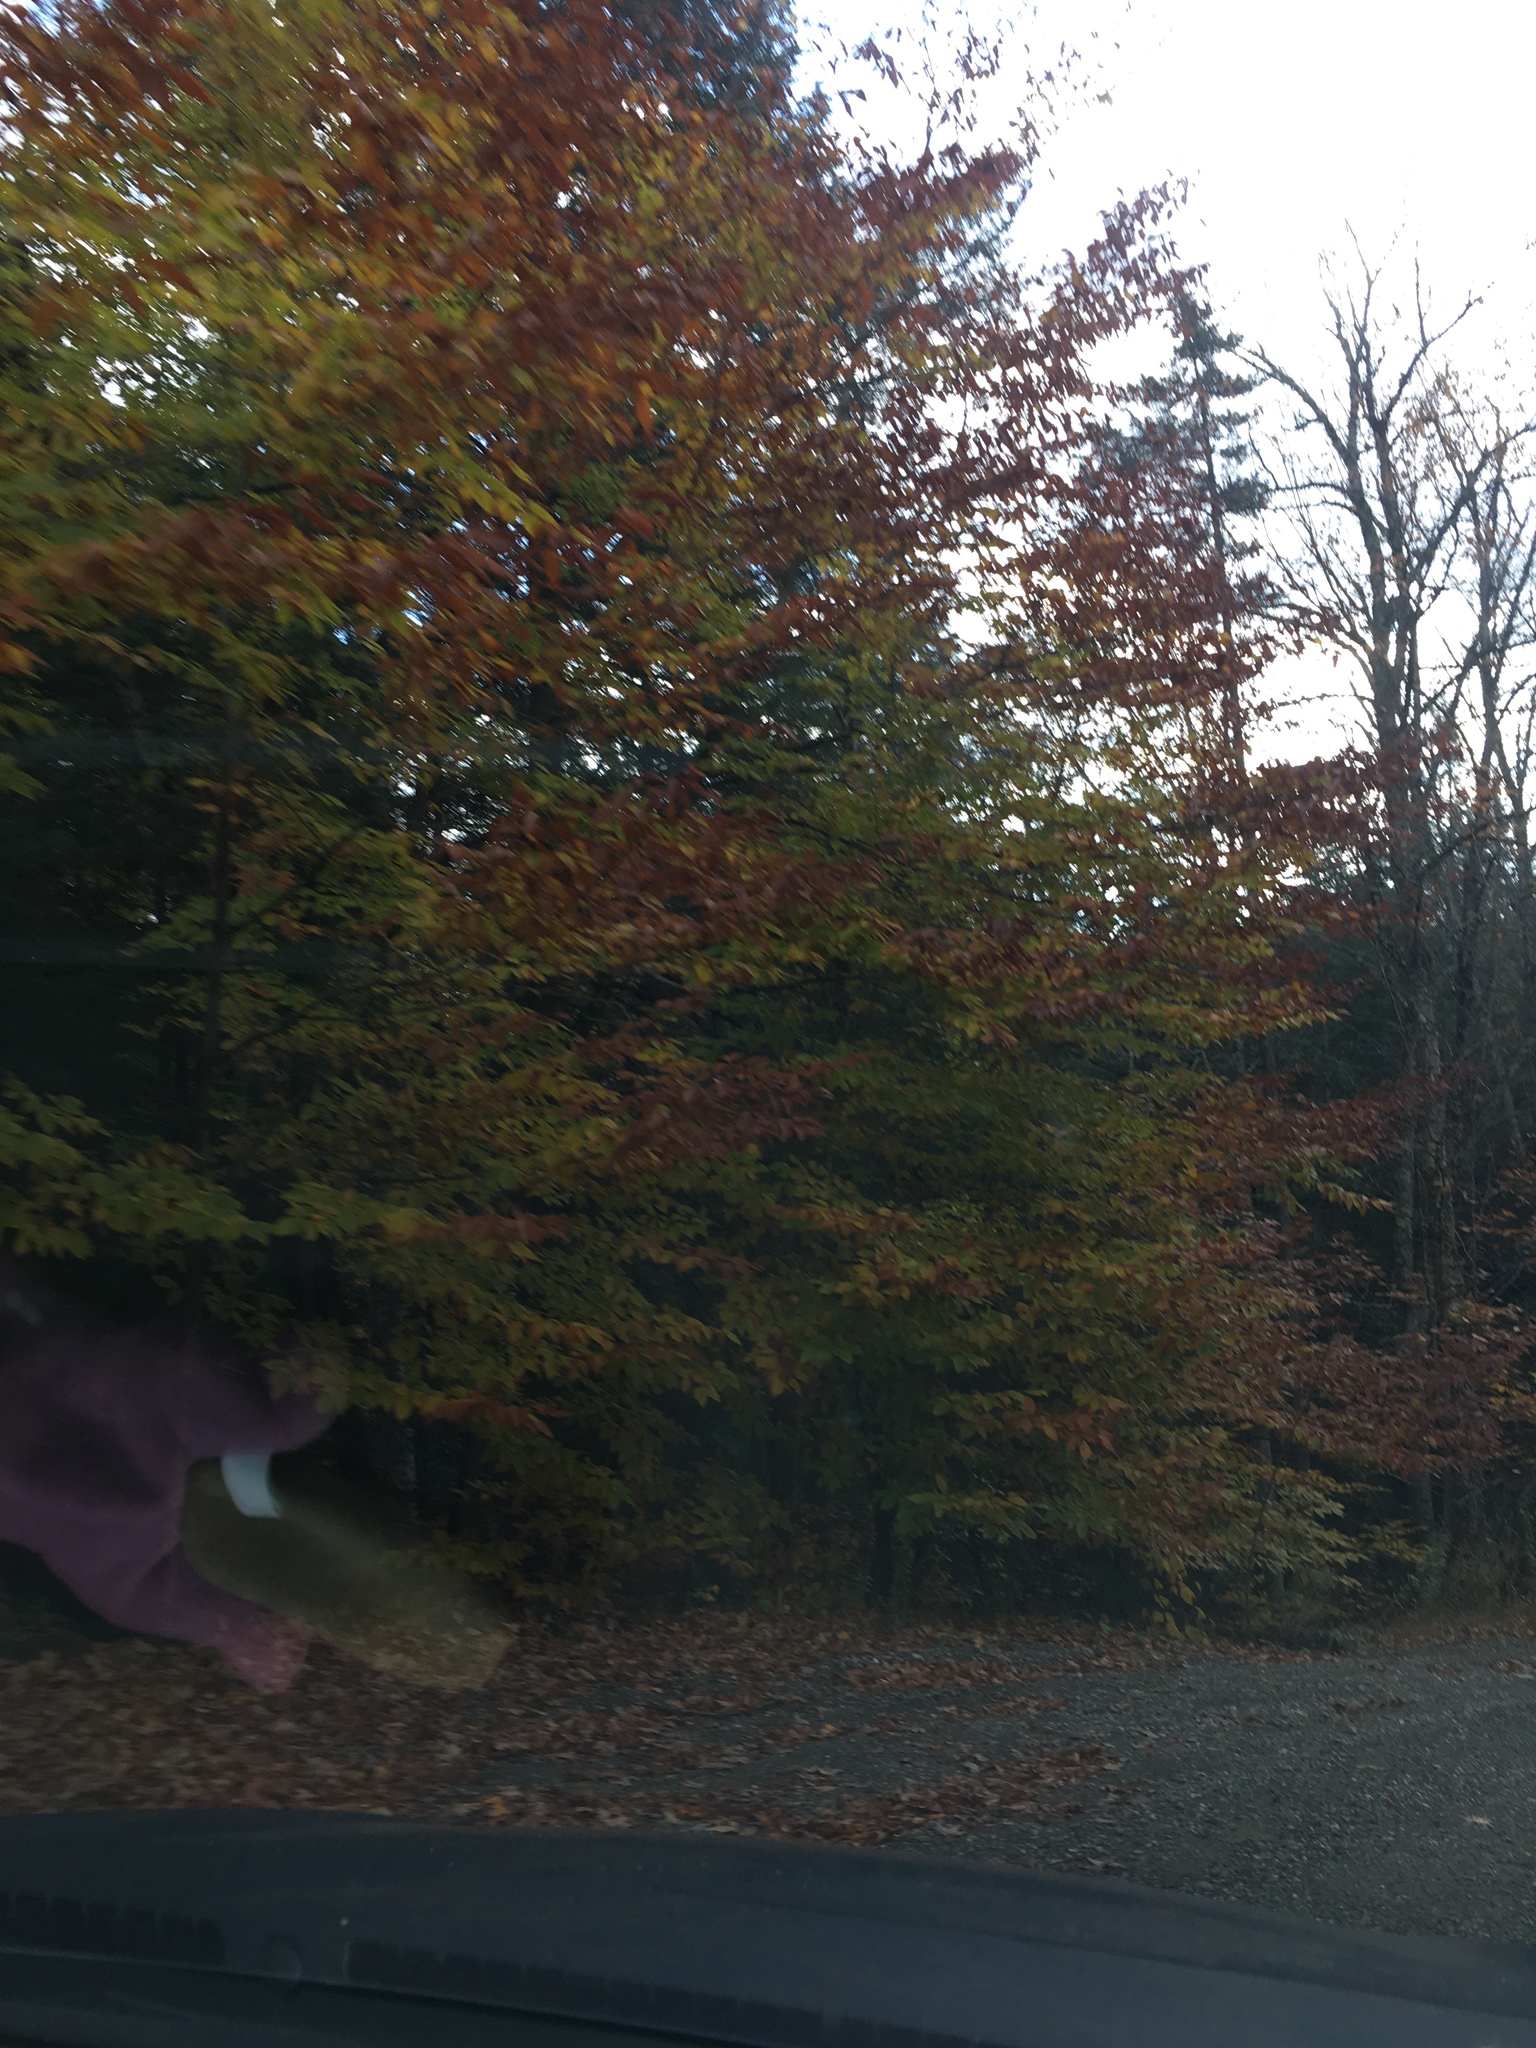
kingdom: Plantae
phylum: Tracheophyta
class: Magnoliopsida
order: Fagales
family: Fagaceae
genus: Fagus
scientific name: Fagus grandifolia
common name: American beech
